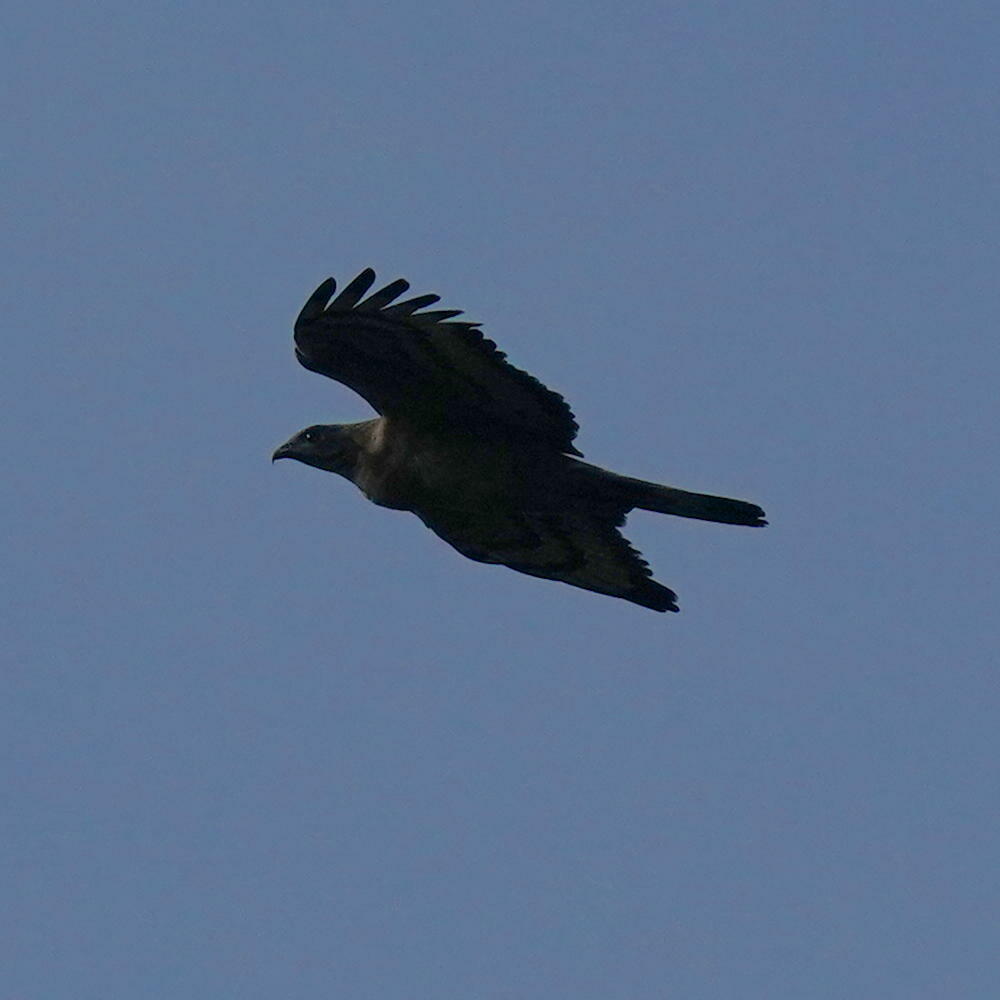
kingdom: Animalia
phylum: Chordata
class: Aves
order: Accipitriformes
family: Accipitridae
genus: Pernis
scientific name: Pernis ptilorhynchus
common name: Crested honey buzzard
